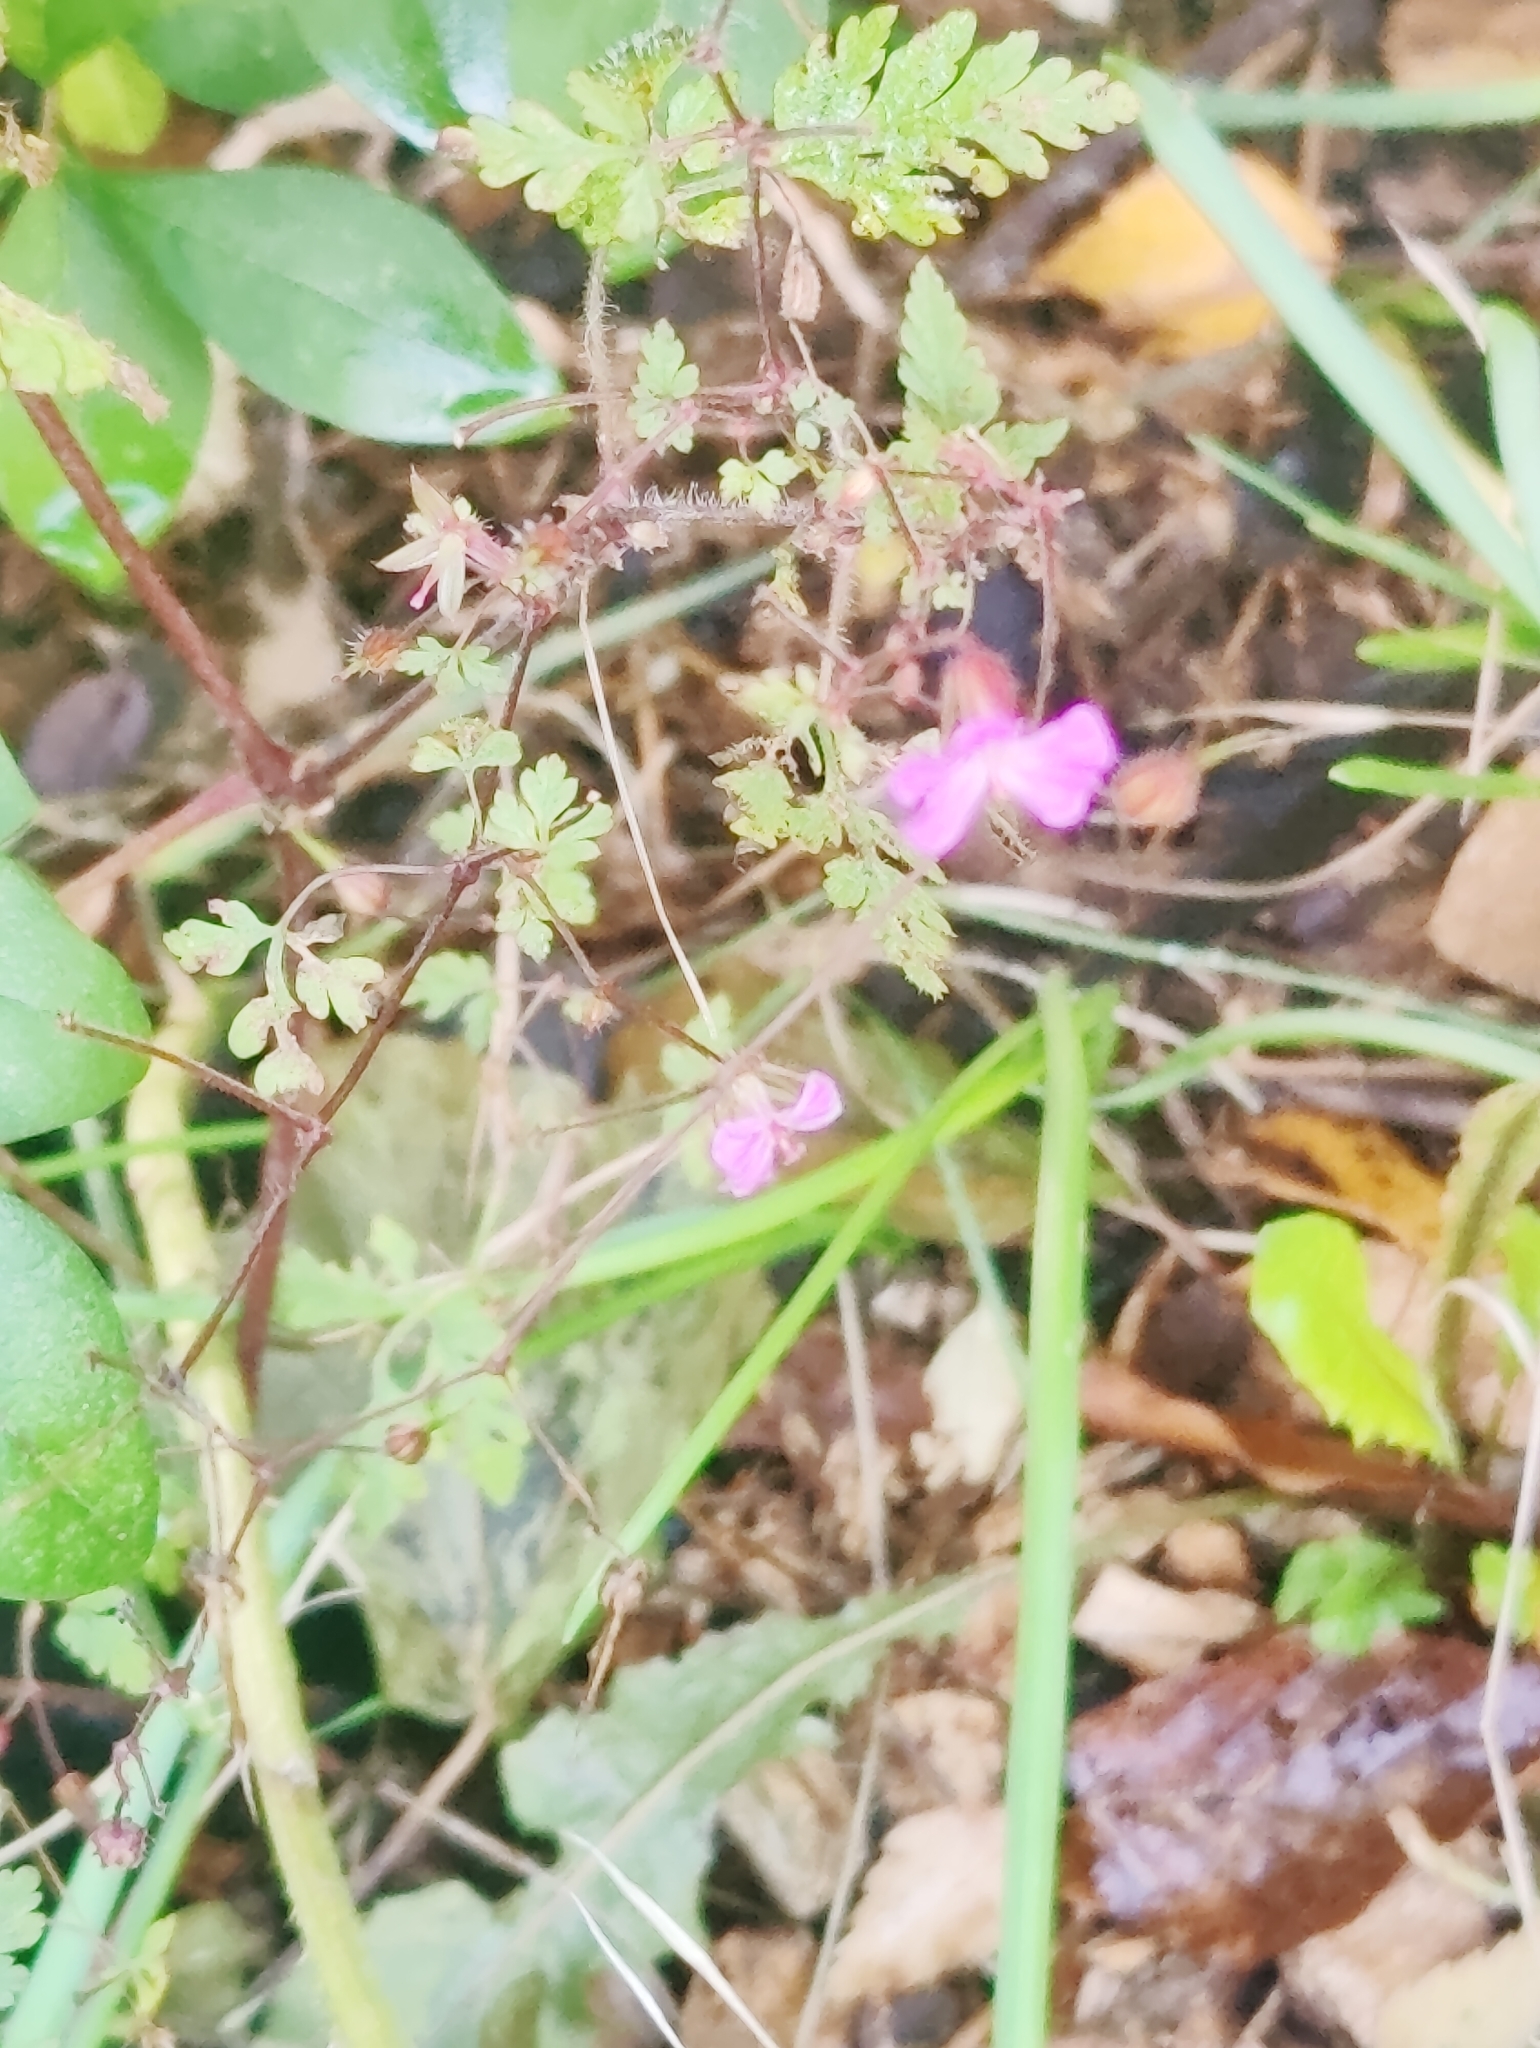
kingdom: Plantae
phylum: Tracheophyta
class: Magnoliopsida
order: Geraniales
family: Geraniaceae
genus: Geranium
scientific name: Geranium robertianum
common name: Herb-robert
